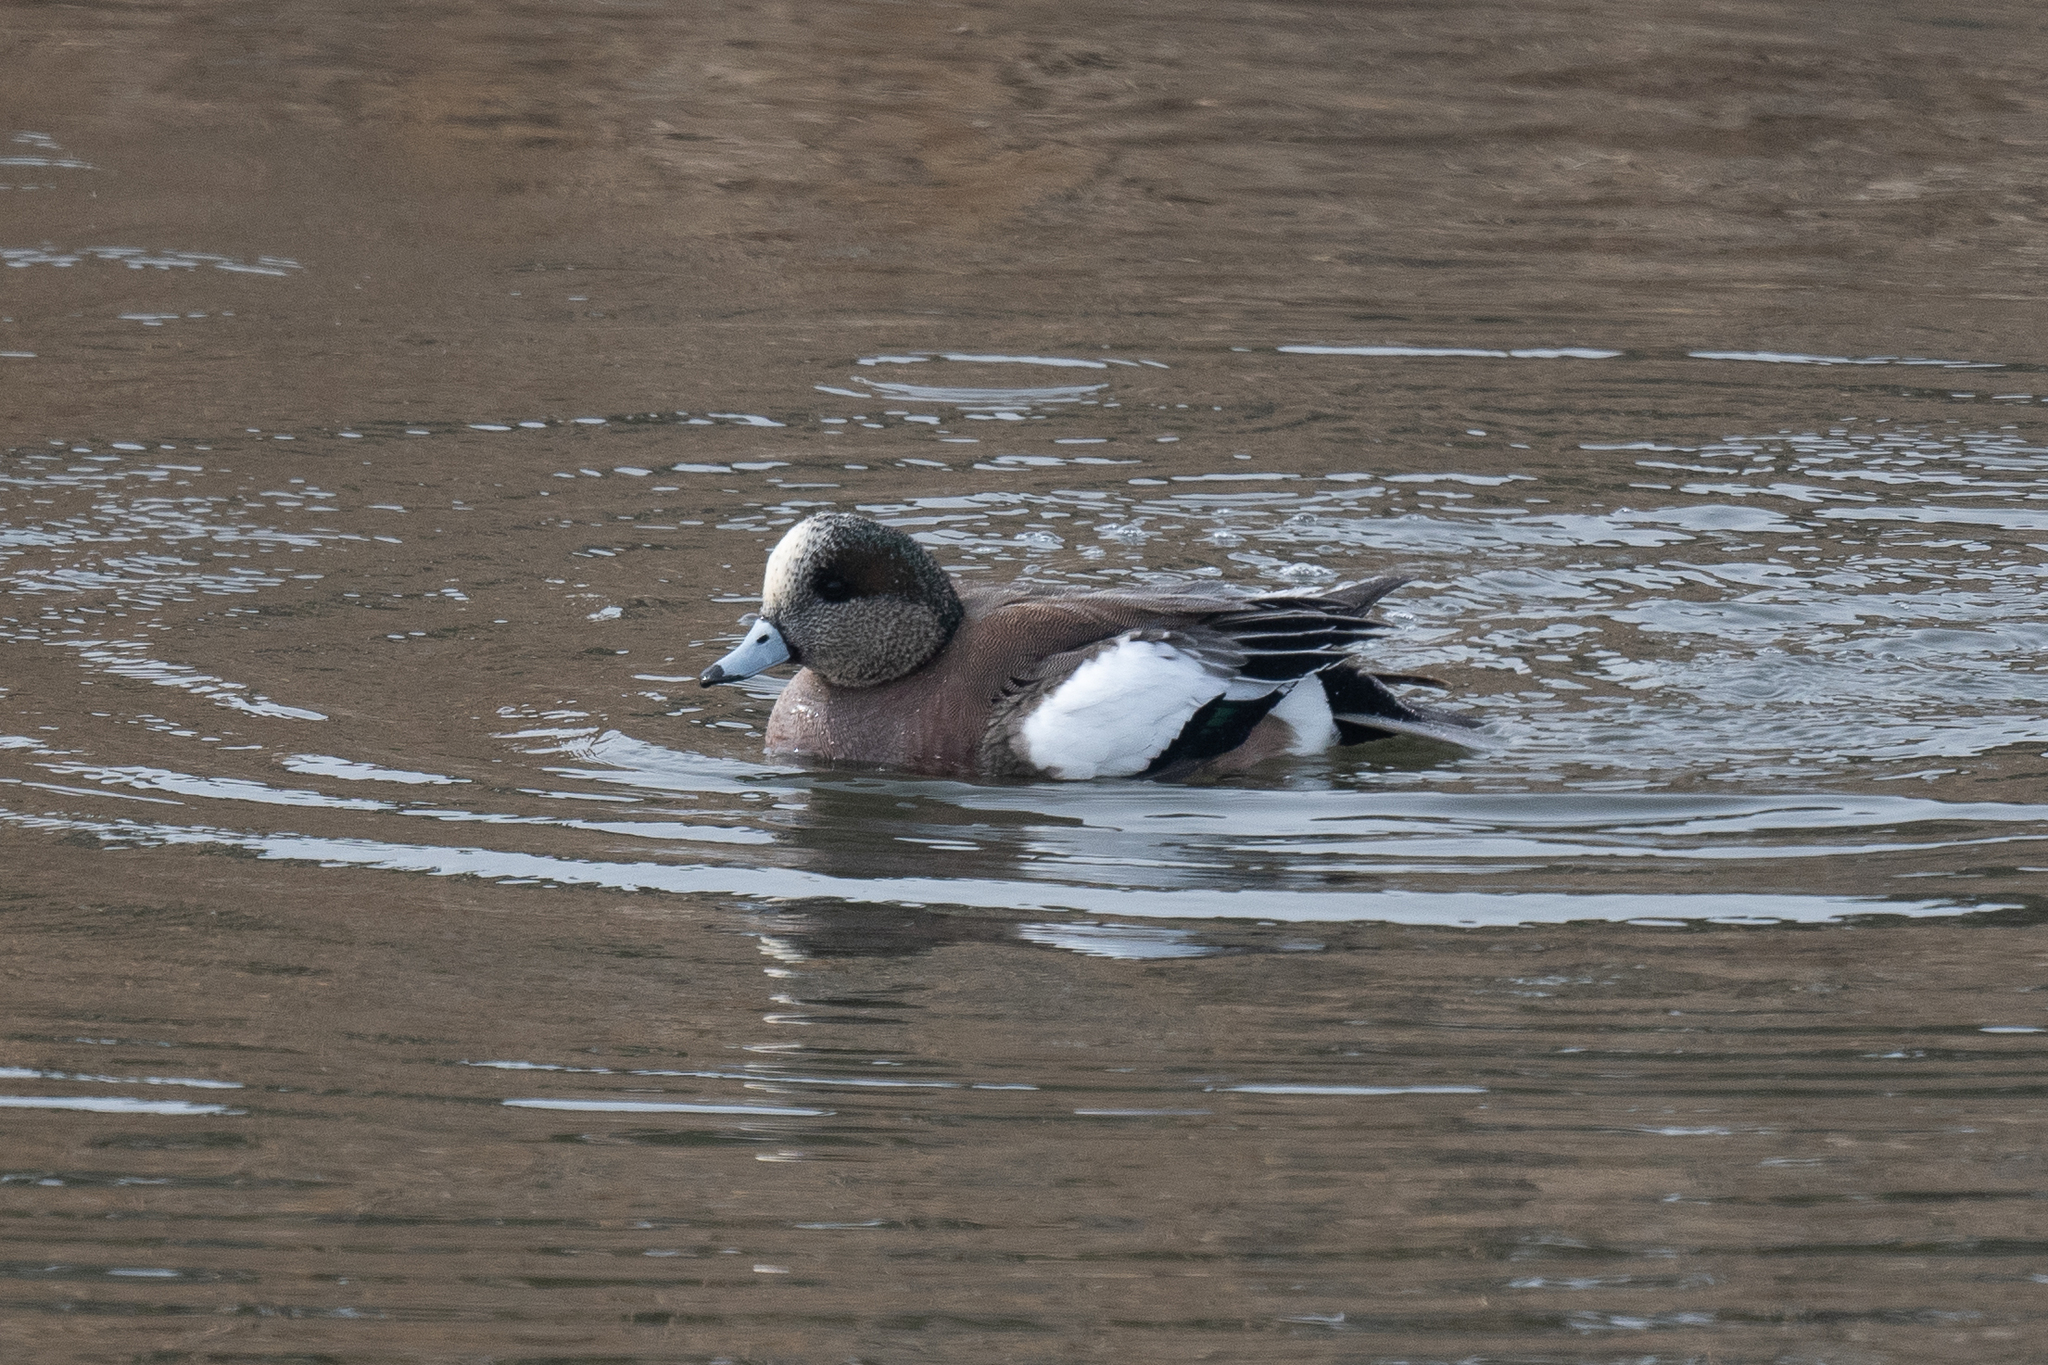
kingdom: Animalia
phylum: Chordata
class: Aves
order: Anseriformes
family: Anatidae
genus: Mareca
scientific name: Mareca americana
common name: American wigeon
